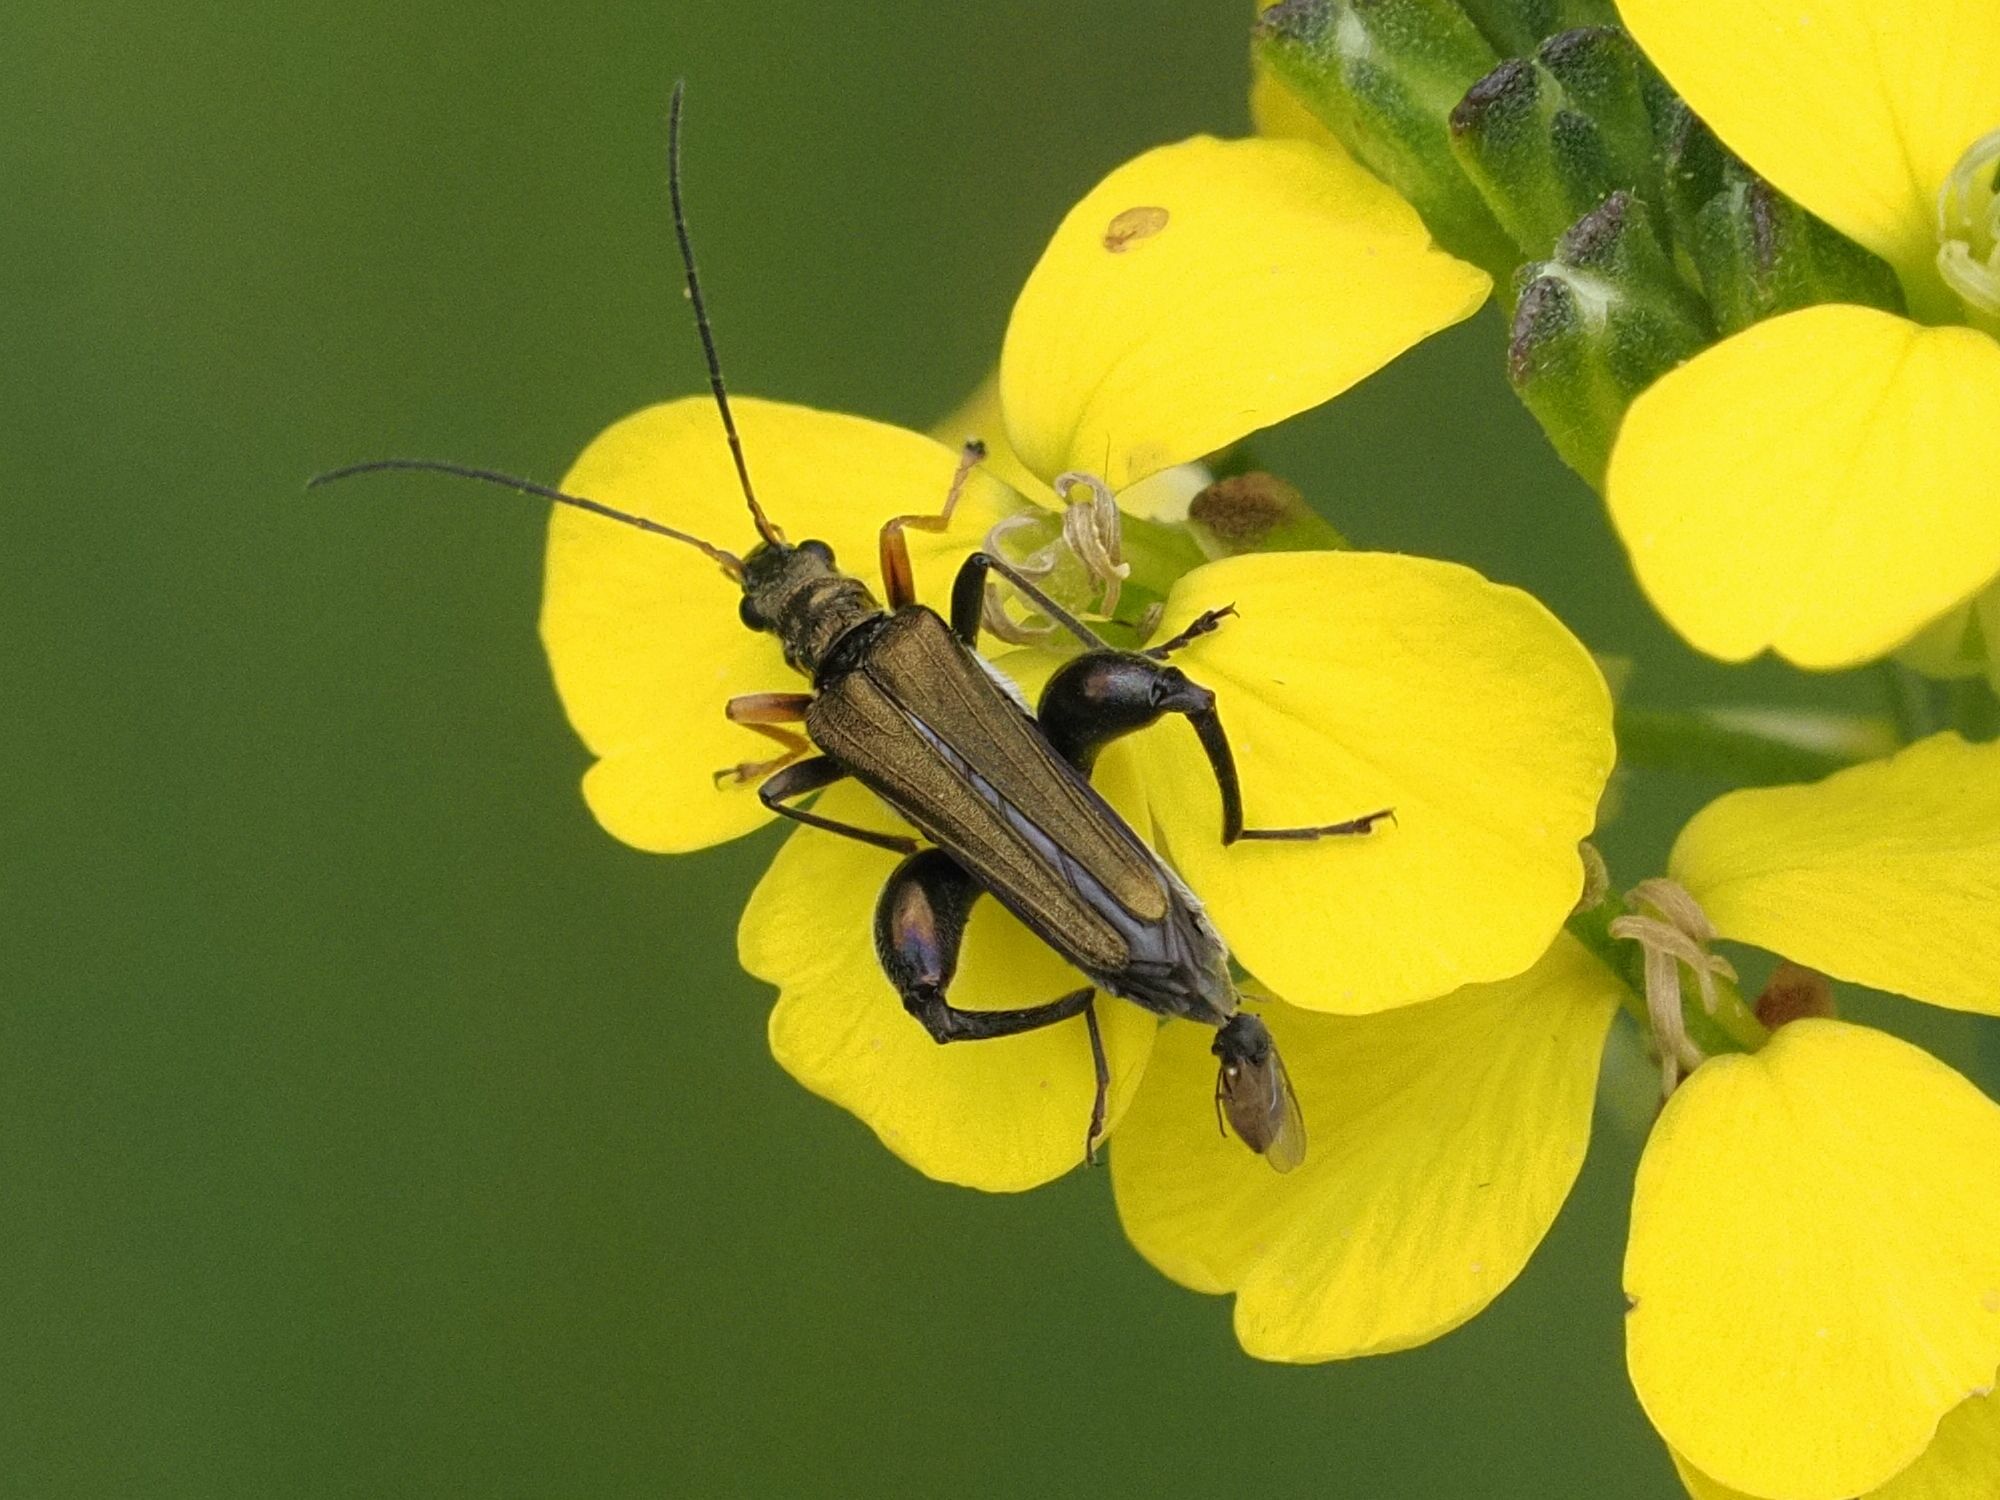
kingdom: Animalia
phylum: Arthropoda
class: Insecta
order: Coleoptera
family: Oedemeridae
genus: Oedemera
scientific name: Oedemera flavipes
